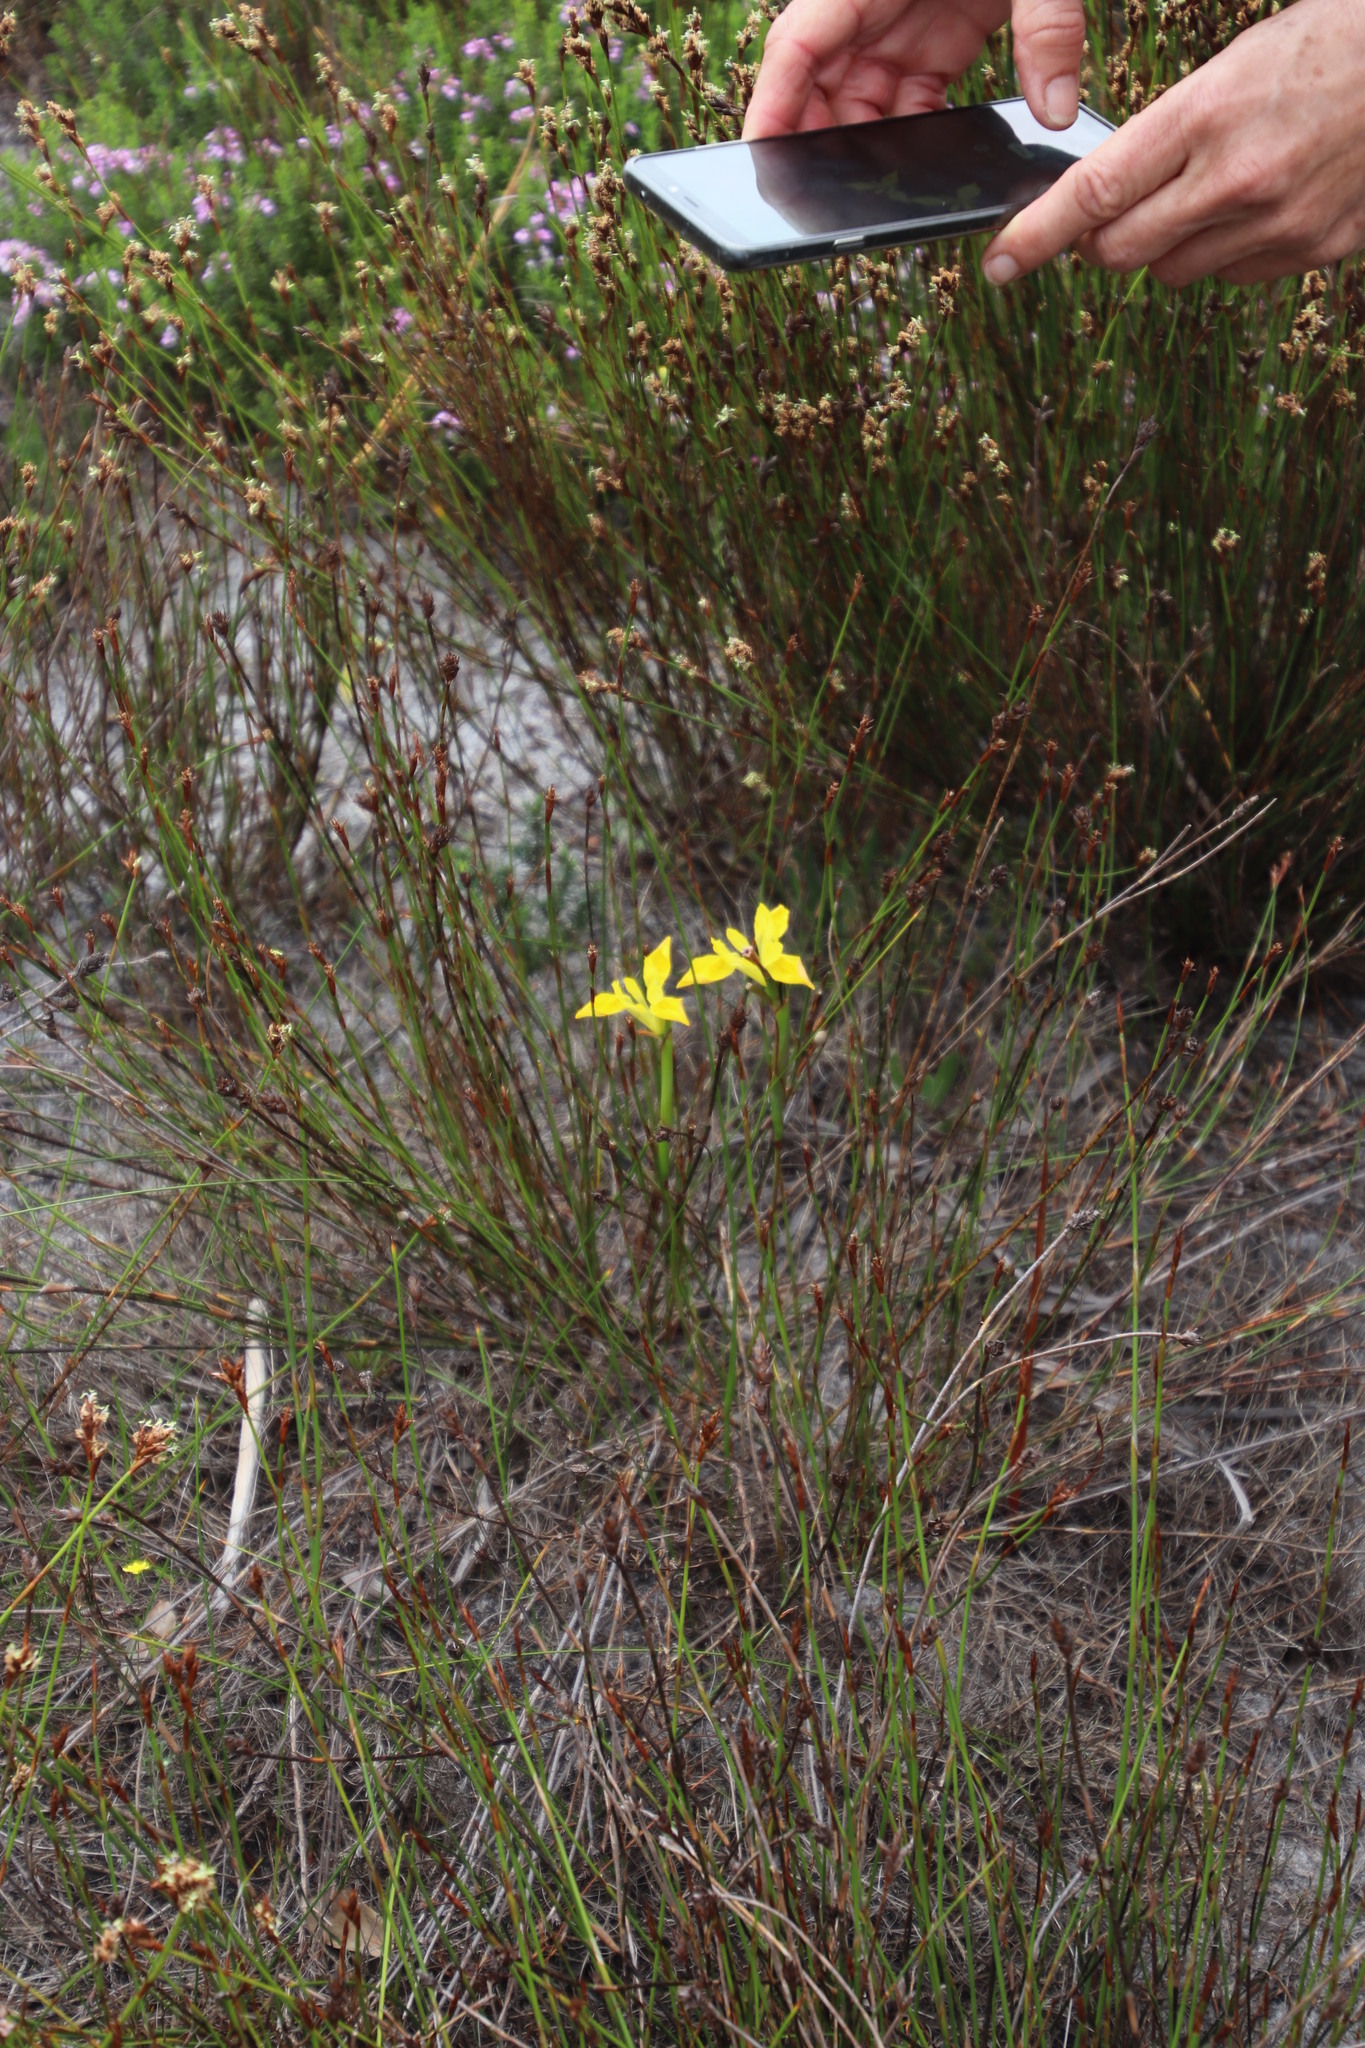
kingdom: Plantae
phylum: Tracheophyta
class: Liliopsida
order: Asparagales
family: Iridaceae
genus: Moraea
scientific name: Moraea neglecta
